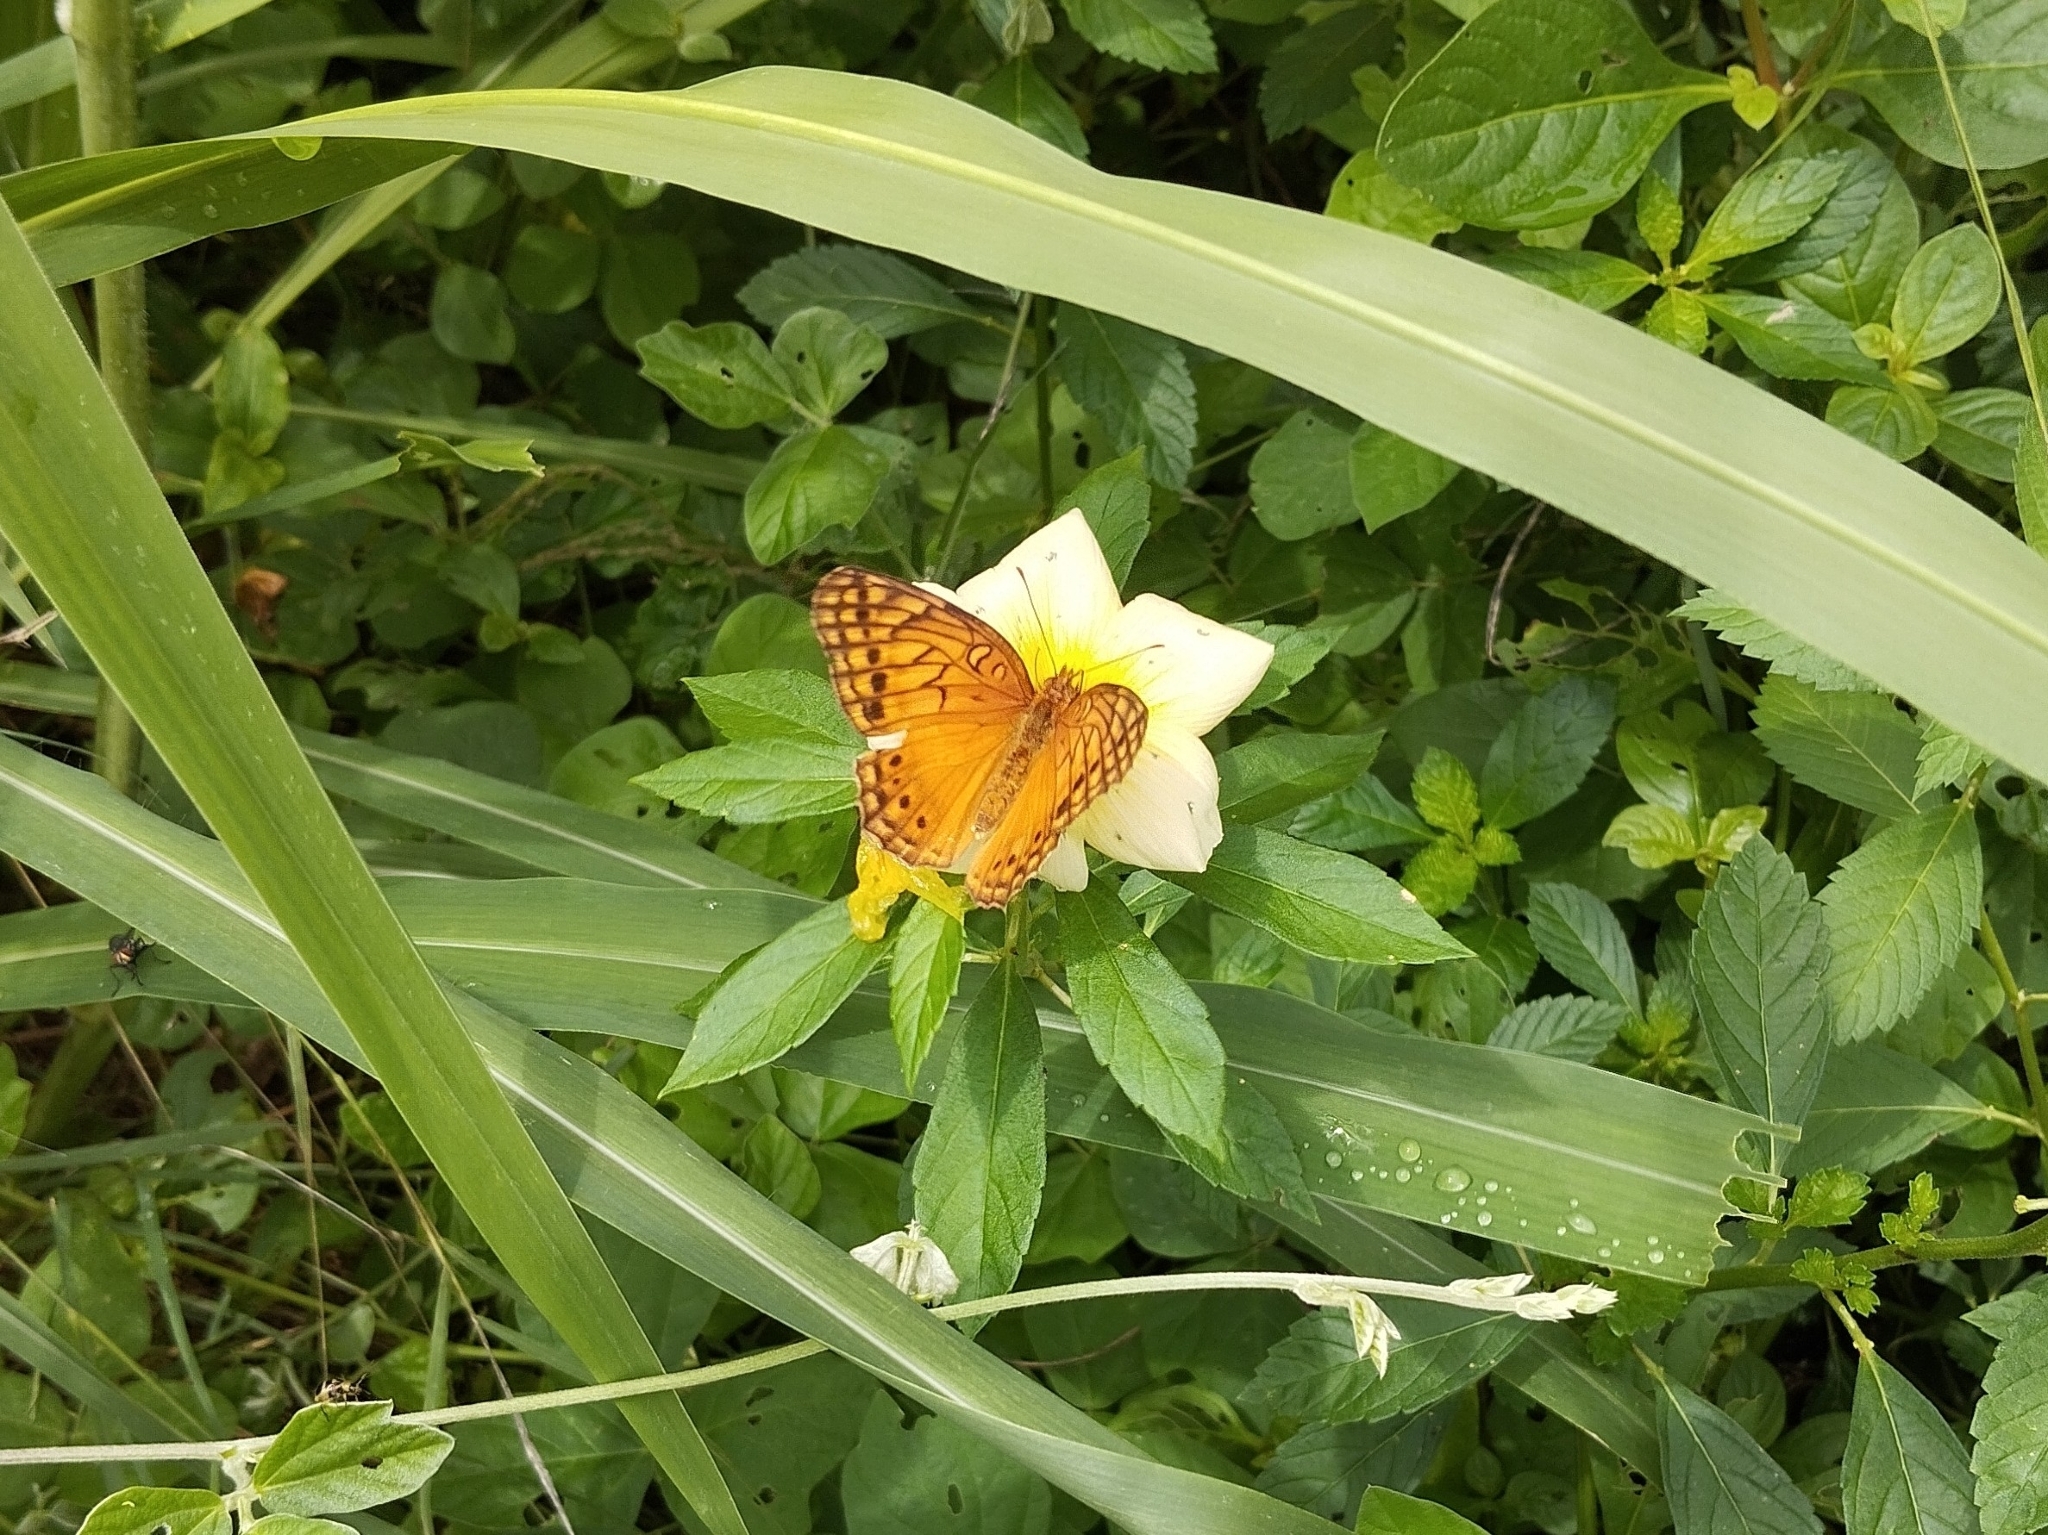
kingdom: Animalia
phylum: Arthropoda
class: Insecta
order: Lepidoptera
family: Nymphalidae
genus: Euptoieta
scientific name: Euptoieta hegesia
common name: Mexican fritillary
